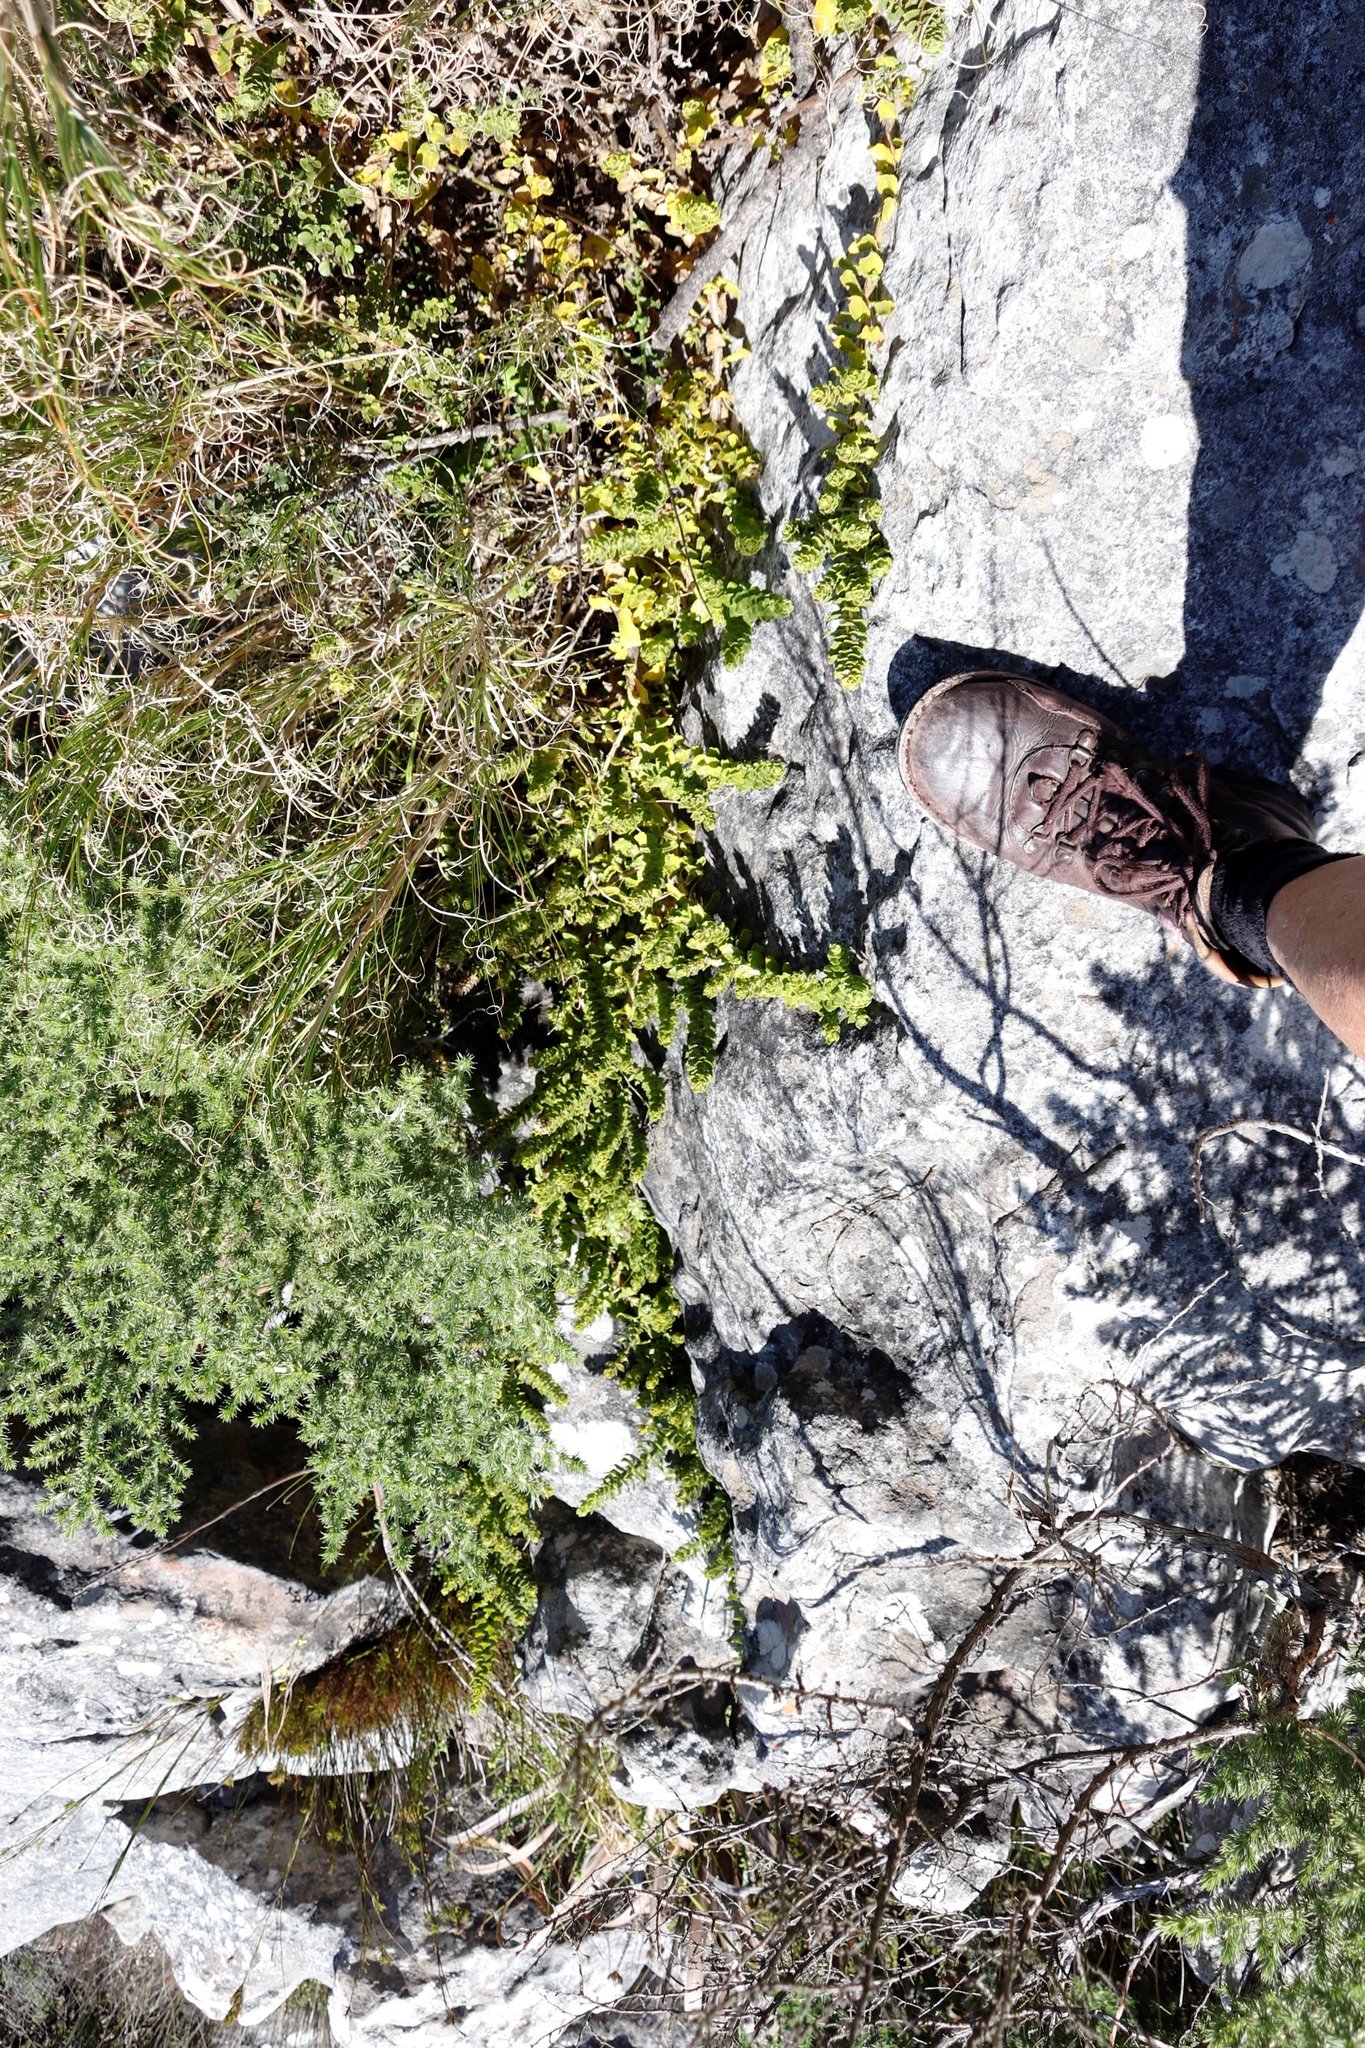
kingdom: Plantae
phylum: Tracheophyta
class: Magnoliopsida
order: Lamiales
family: Scrophulariaceae
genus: Oftia
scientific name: Oftia africana
